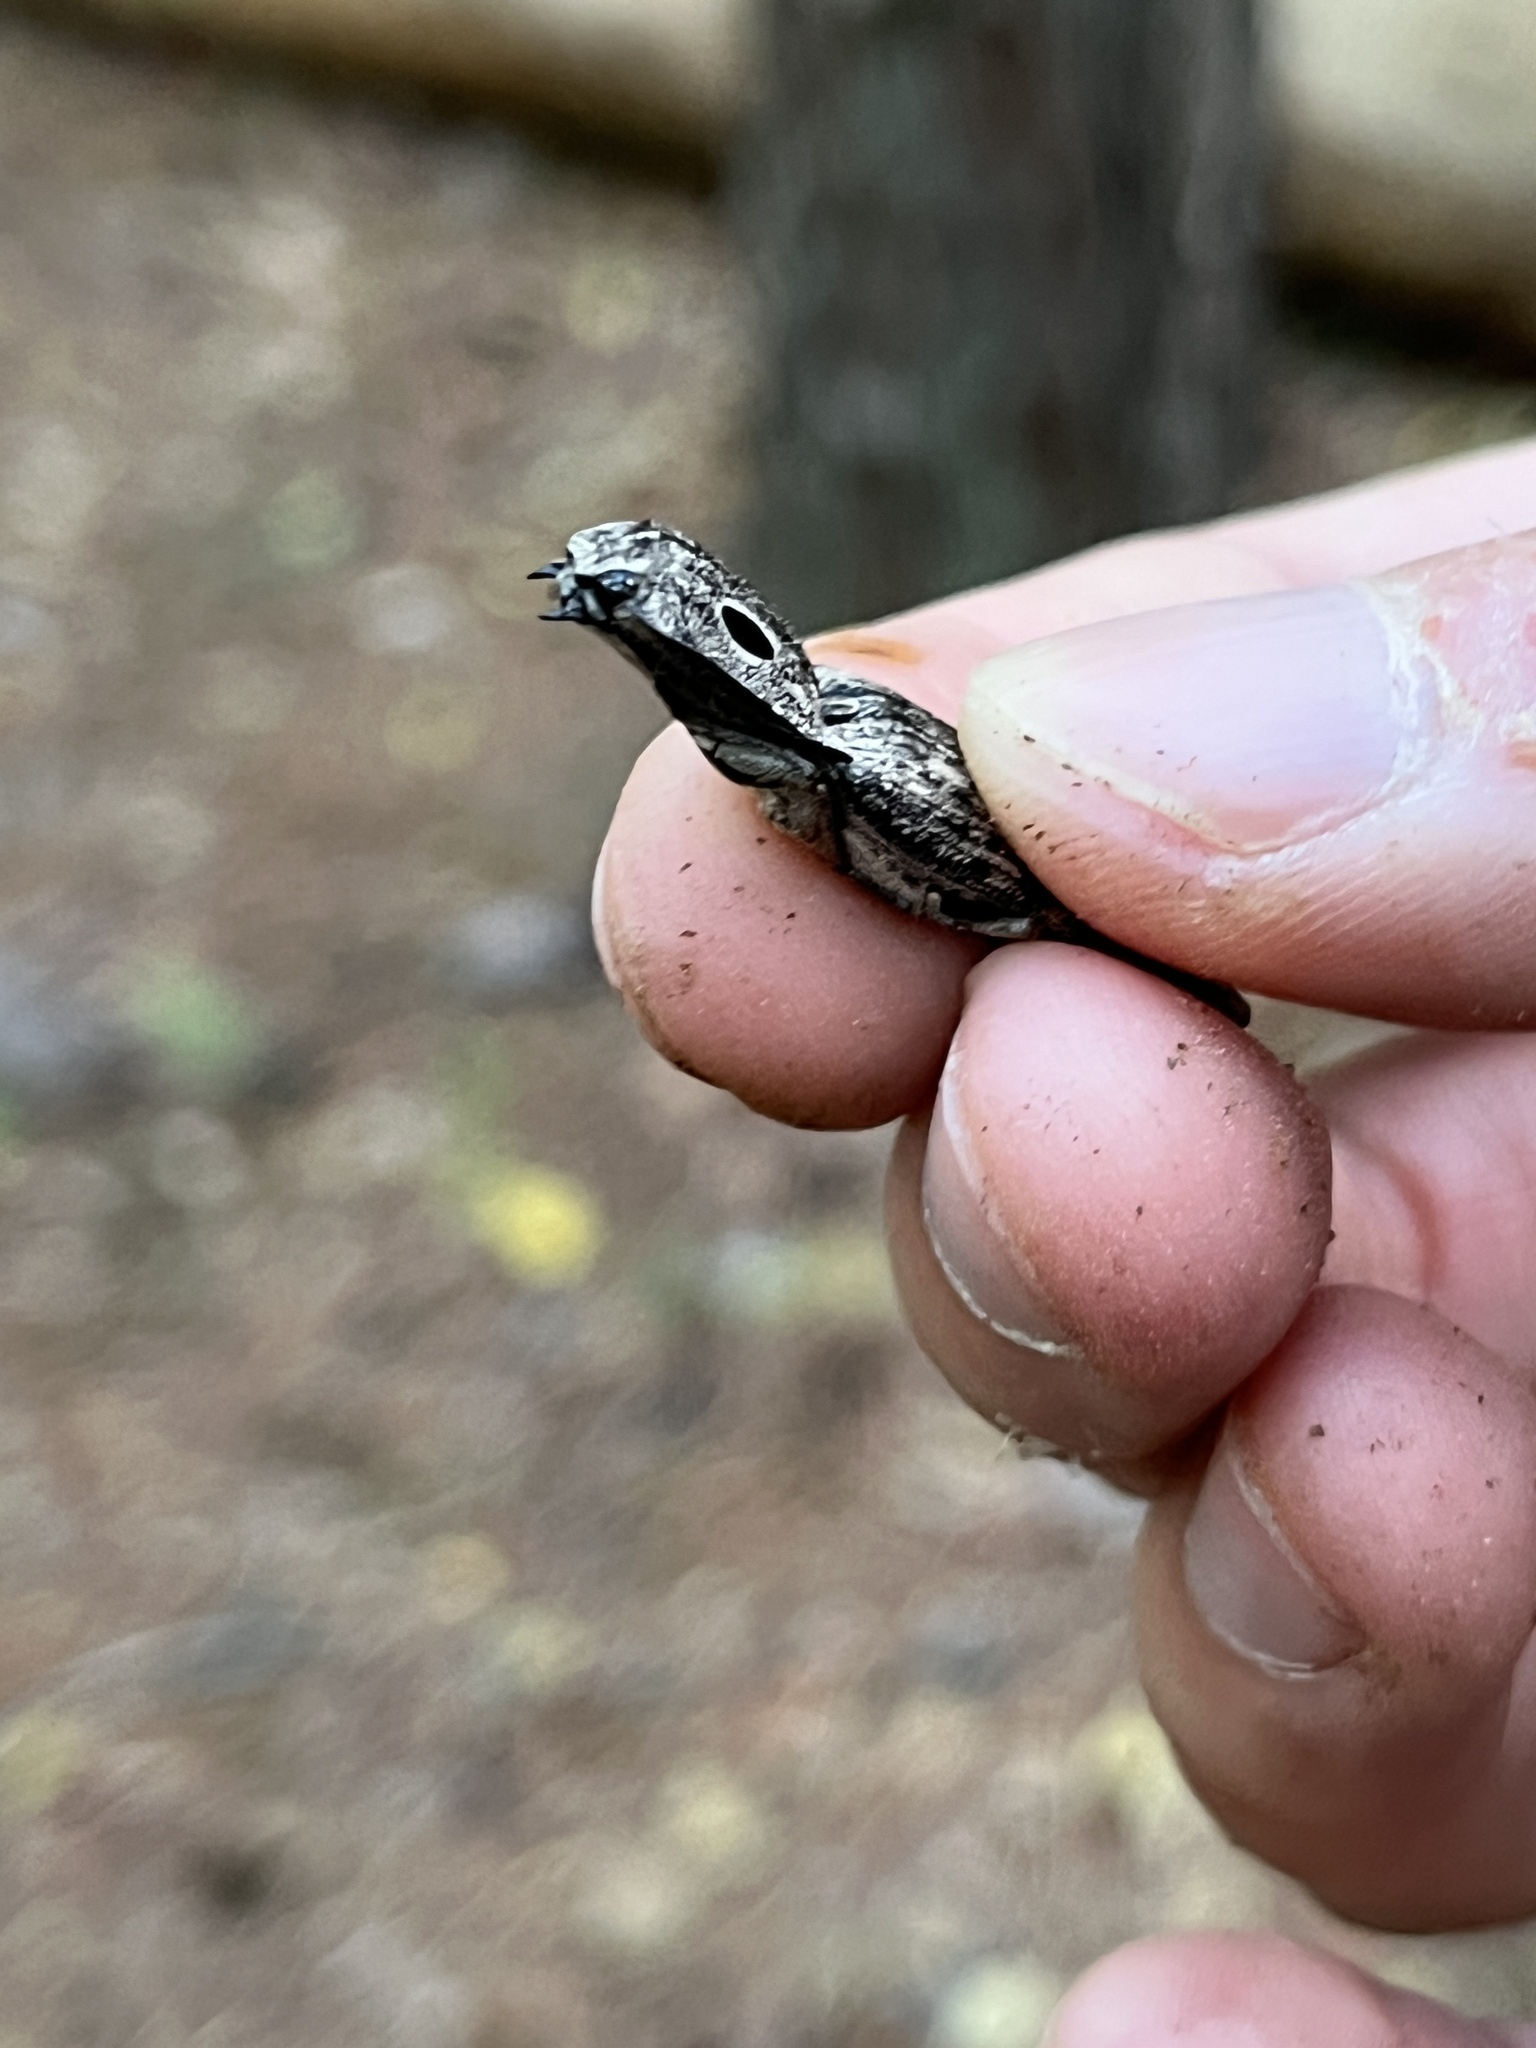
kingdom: Animalia
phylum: Arthropoda
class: Insecta
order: Coleoptera
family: Elateridae
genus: Alaus
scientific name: Alaus myops
